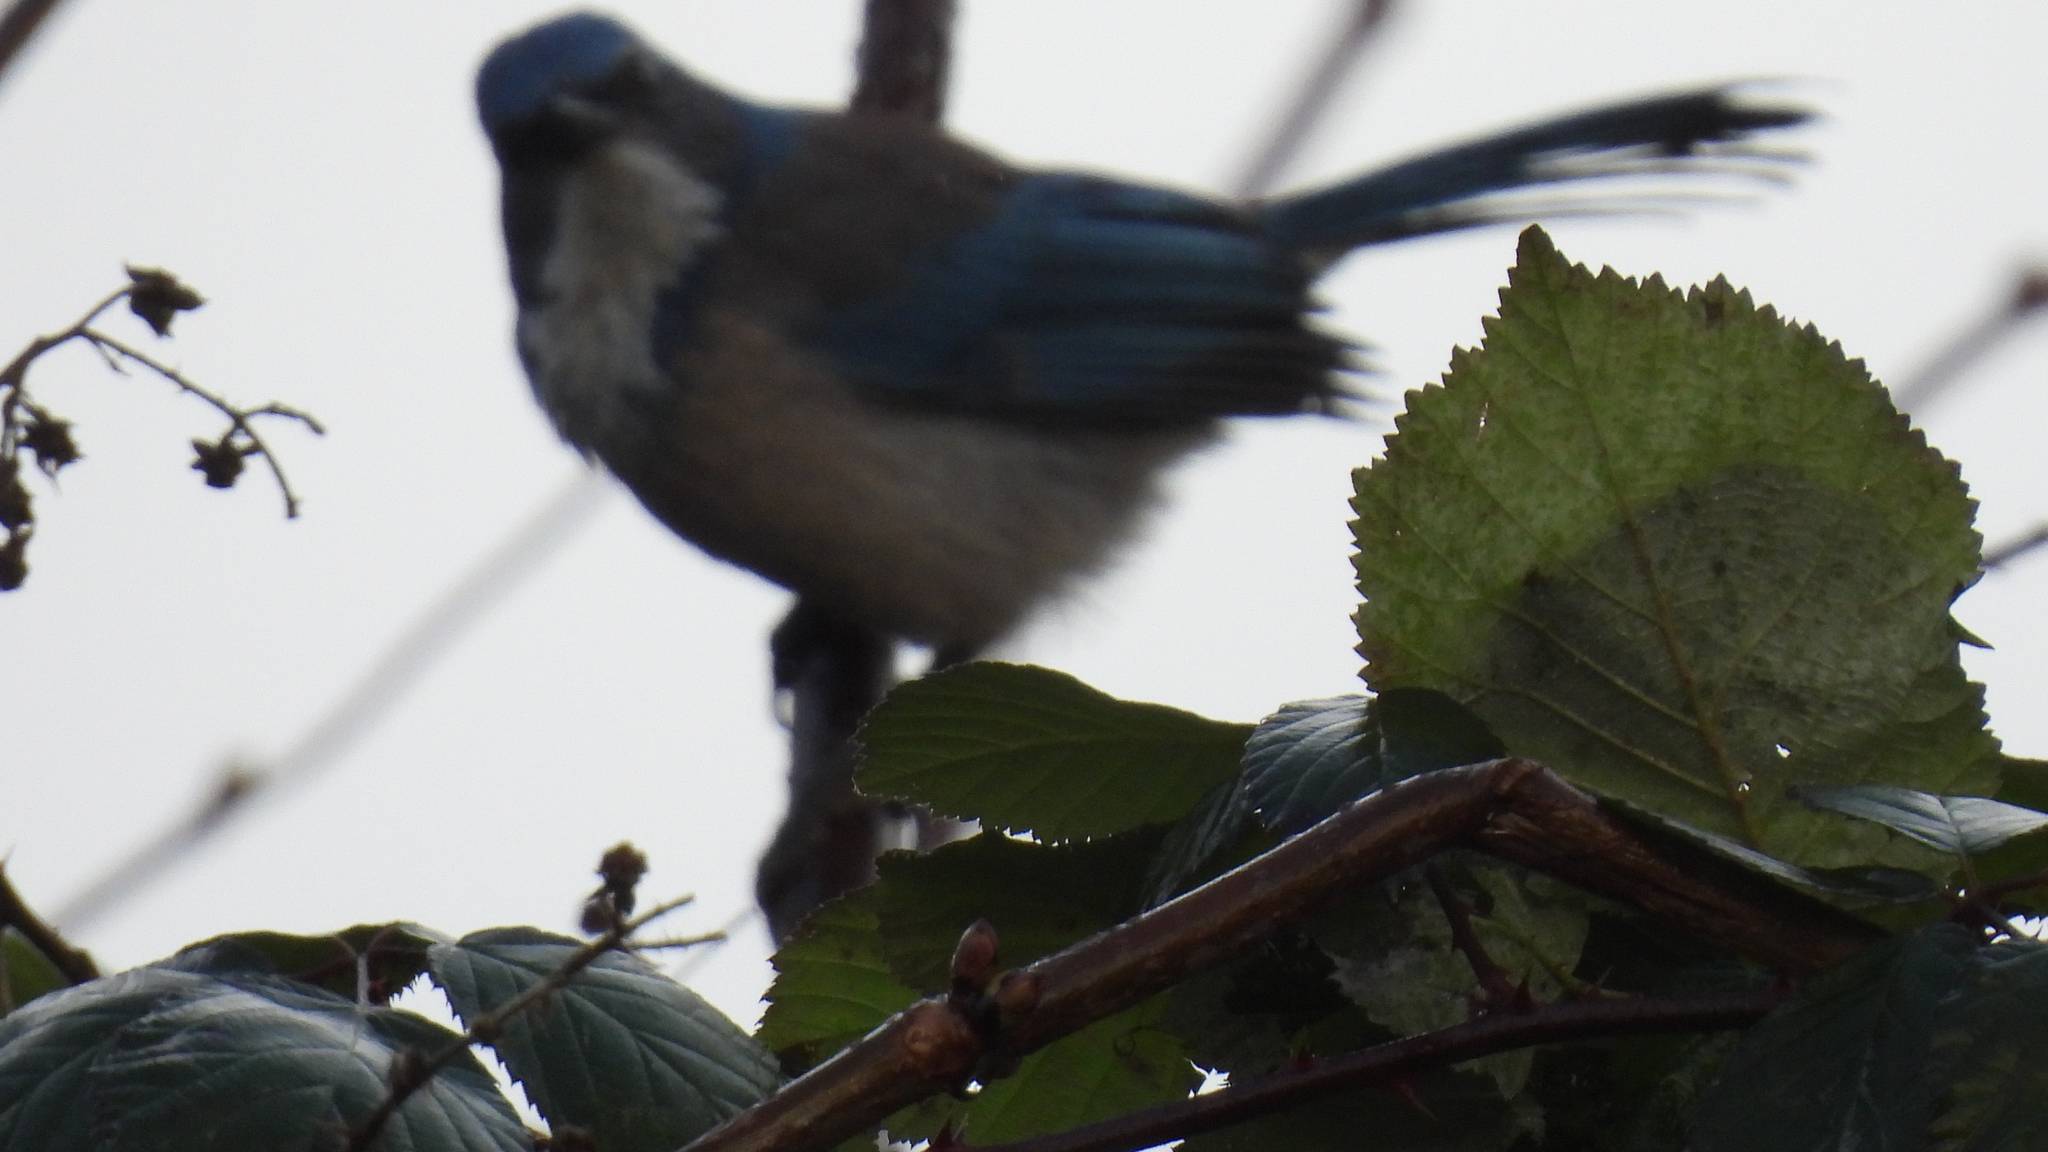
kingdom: Animalia
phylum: Chordata
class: Aves
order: Passeriformes
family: Corvidae
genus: Aphelocoma
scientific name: Aphelocoma californica
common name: California scrub-jay
